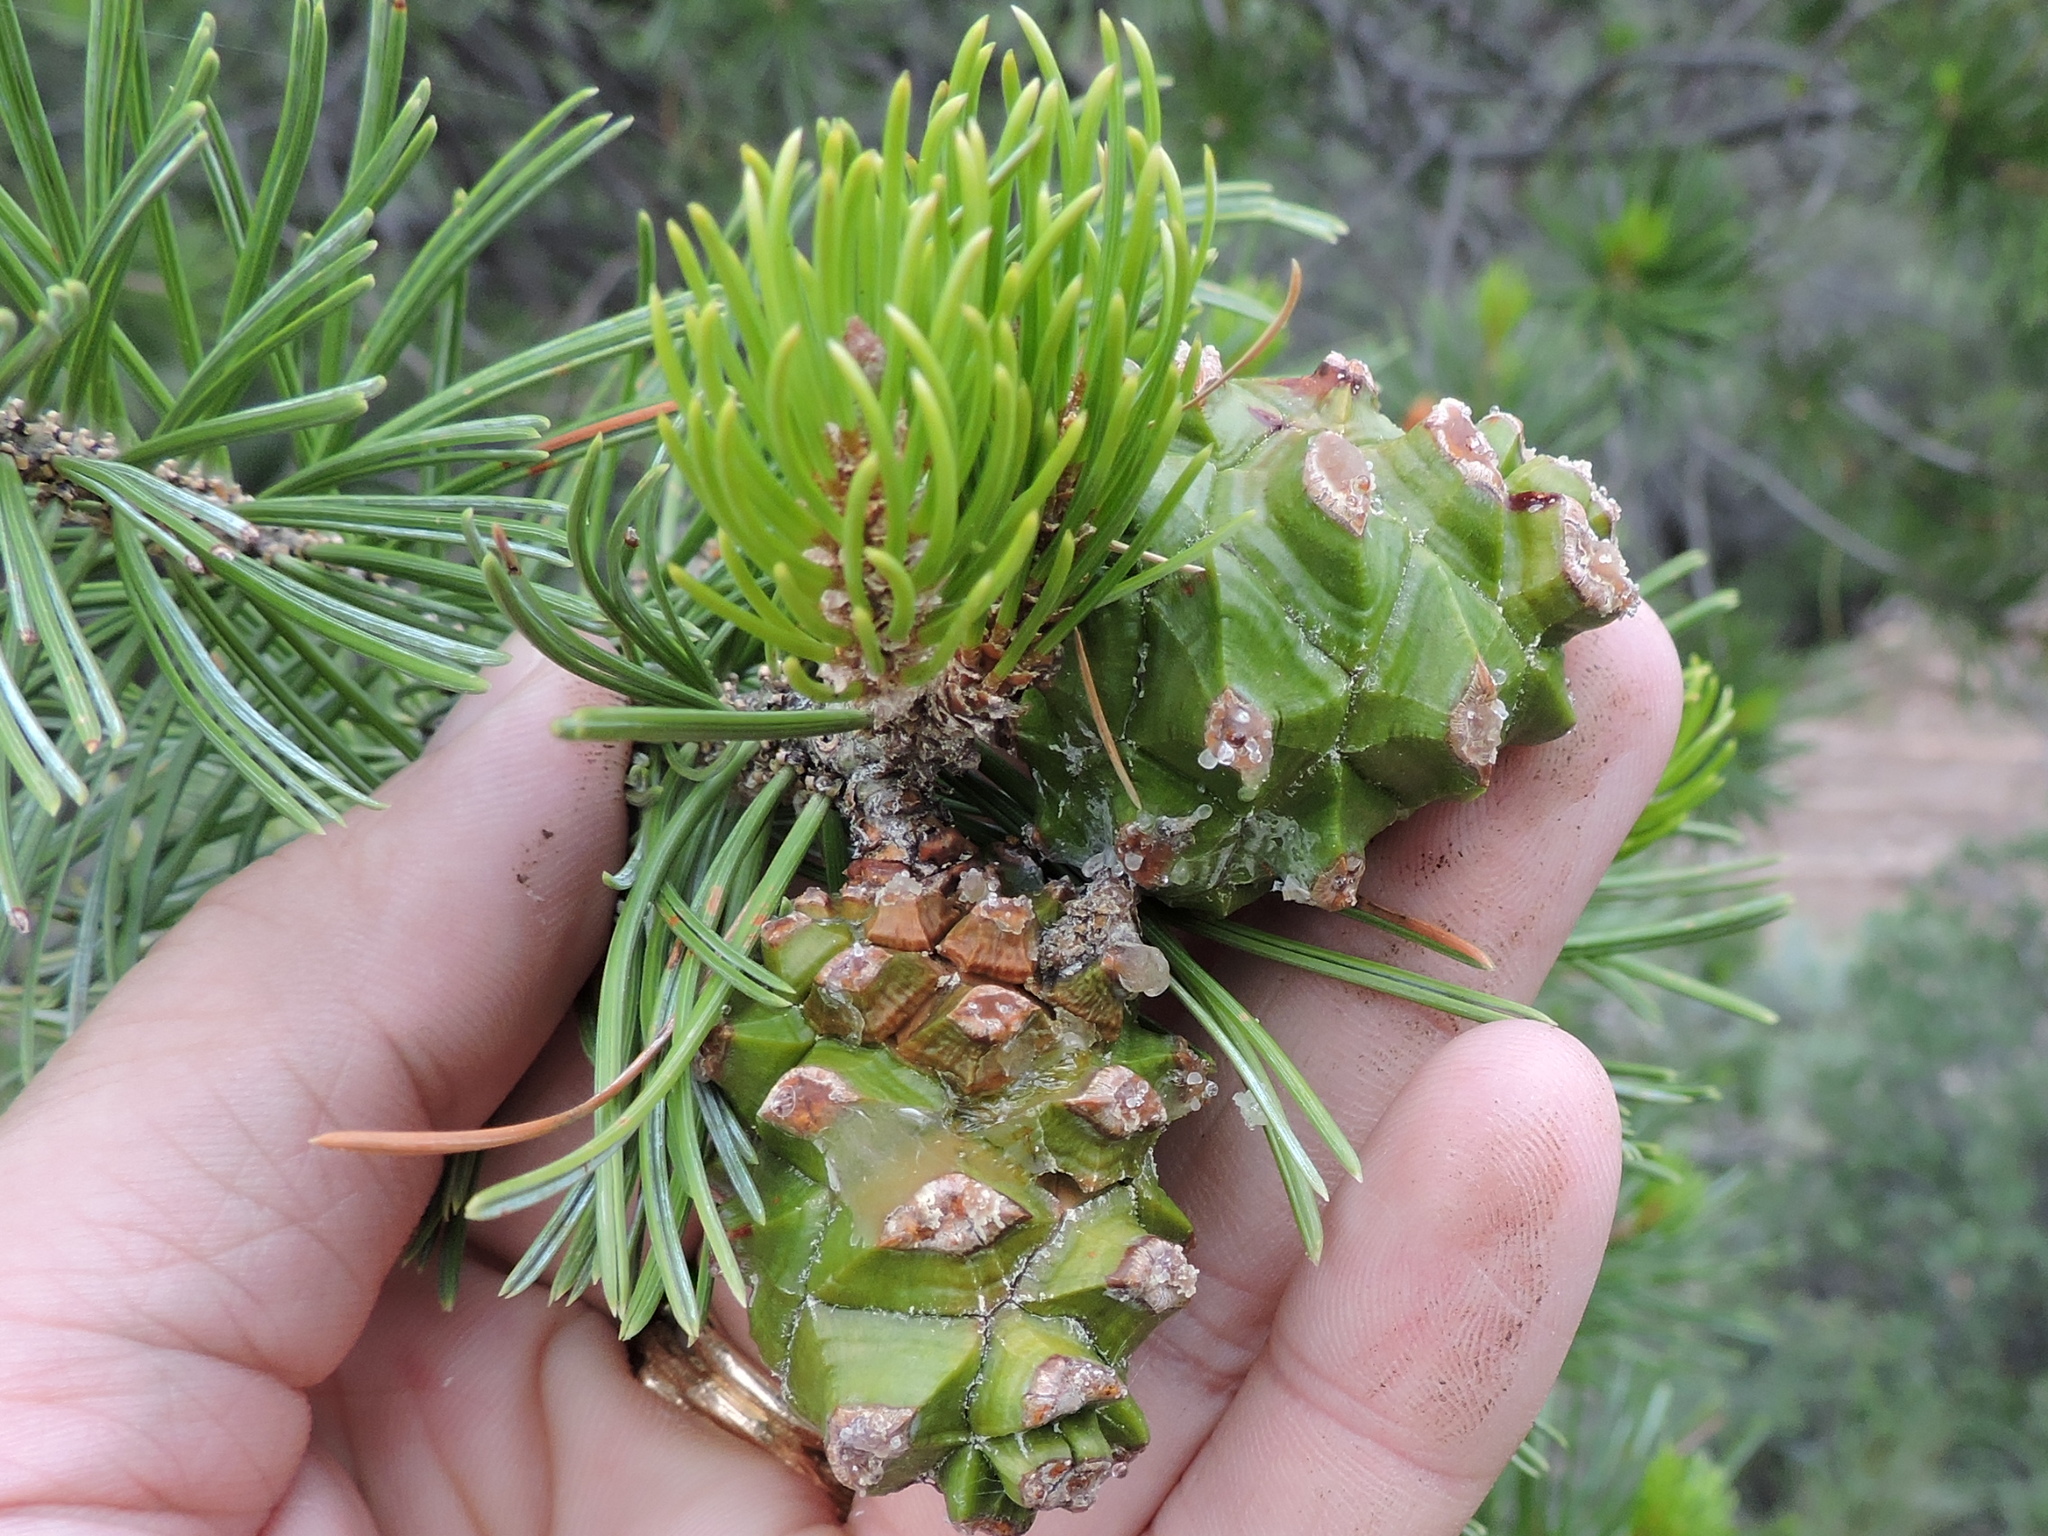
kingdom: Plantae
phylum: Tracheophyta
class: Pinopsida
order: Pinales
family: Pinaceae
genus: Pinus
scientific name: Pinus cembroides
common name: Mexican nut pine
